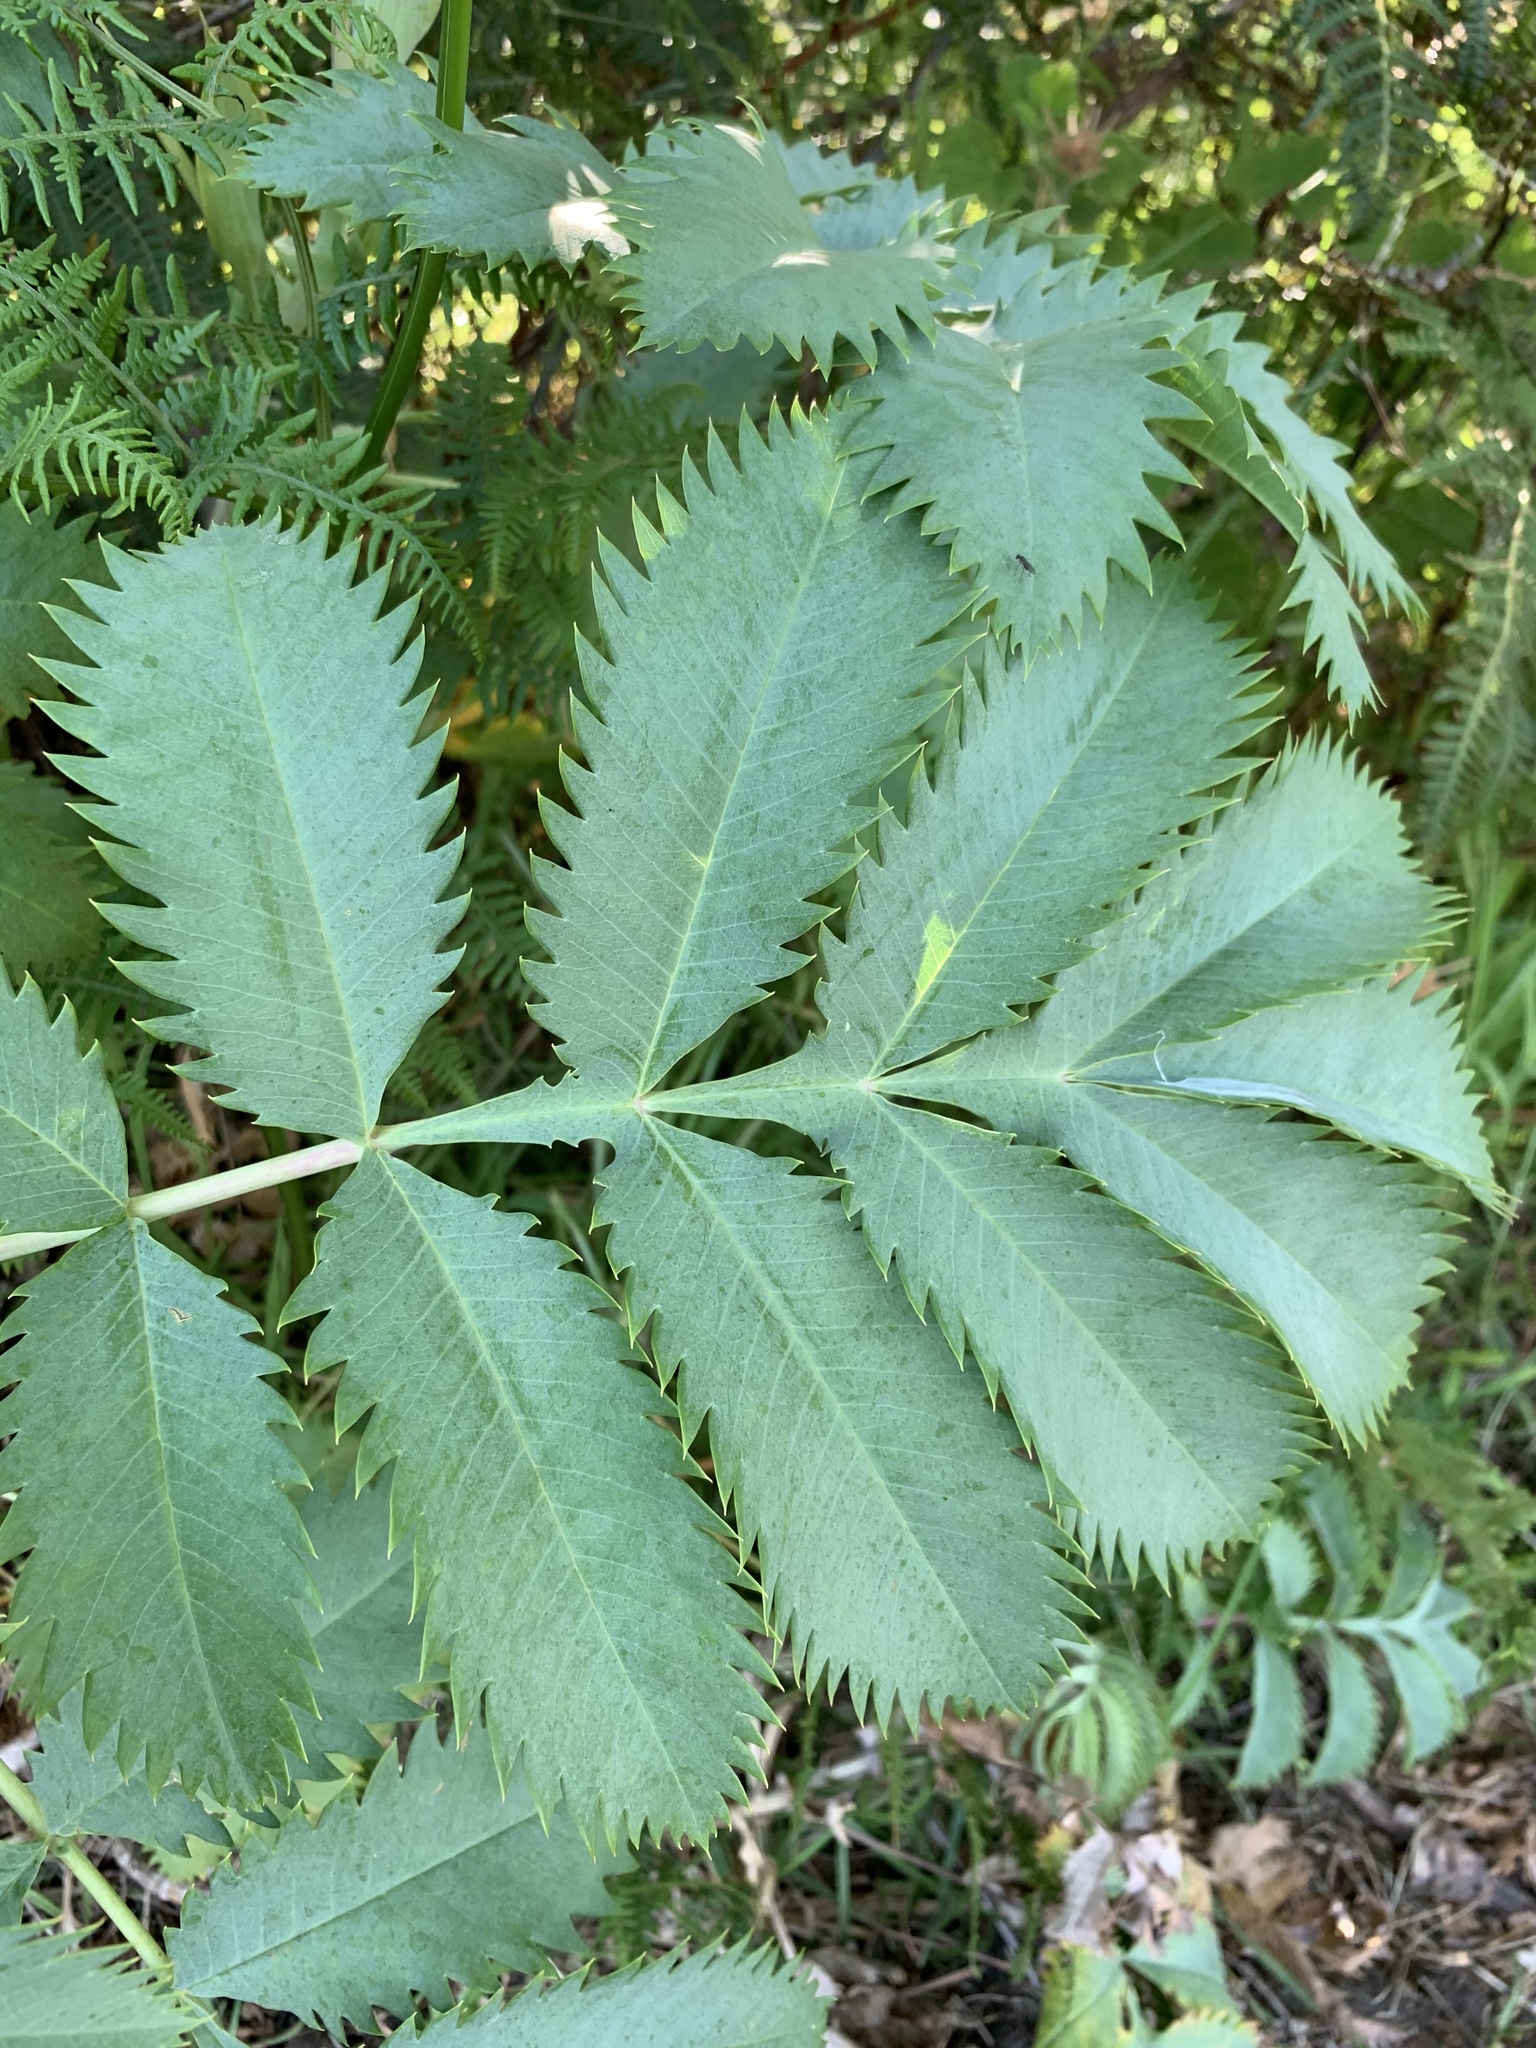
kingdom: Plantae
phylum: Tracheophyta
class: Magnoliopsida
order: Geraniales
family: Melianthaceae
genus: Melianthus
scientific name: Melianthus major
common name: Honey-flower
